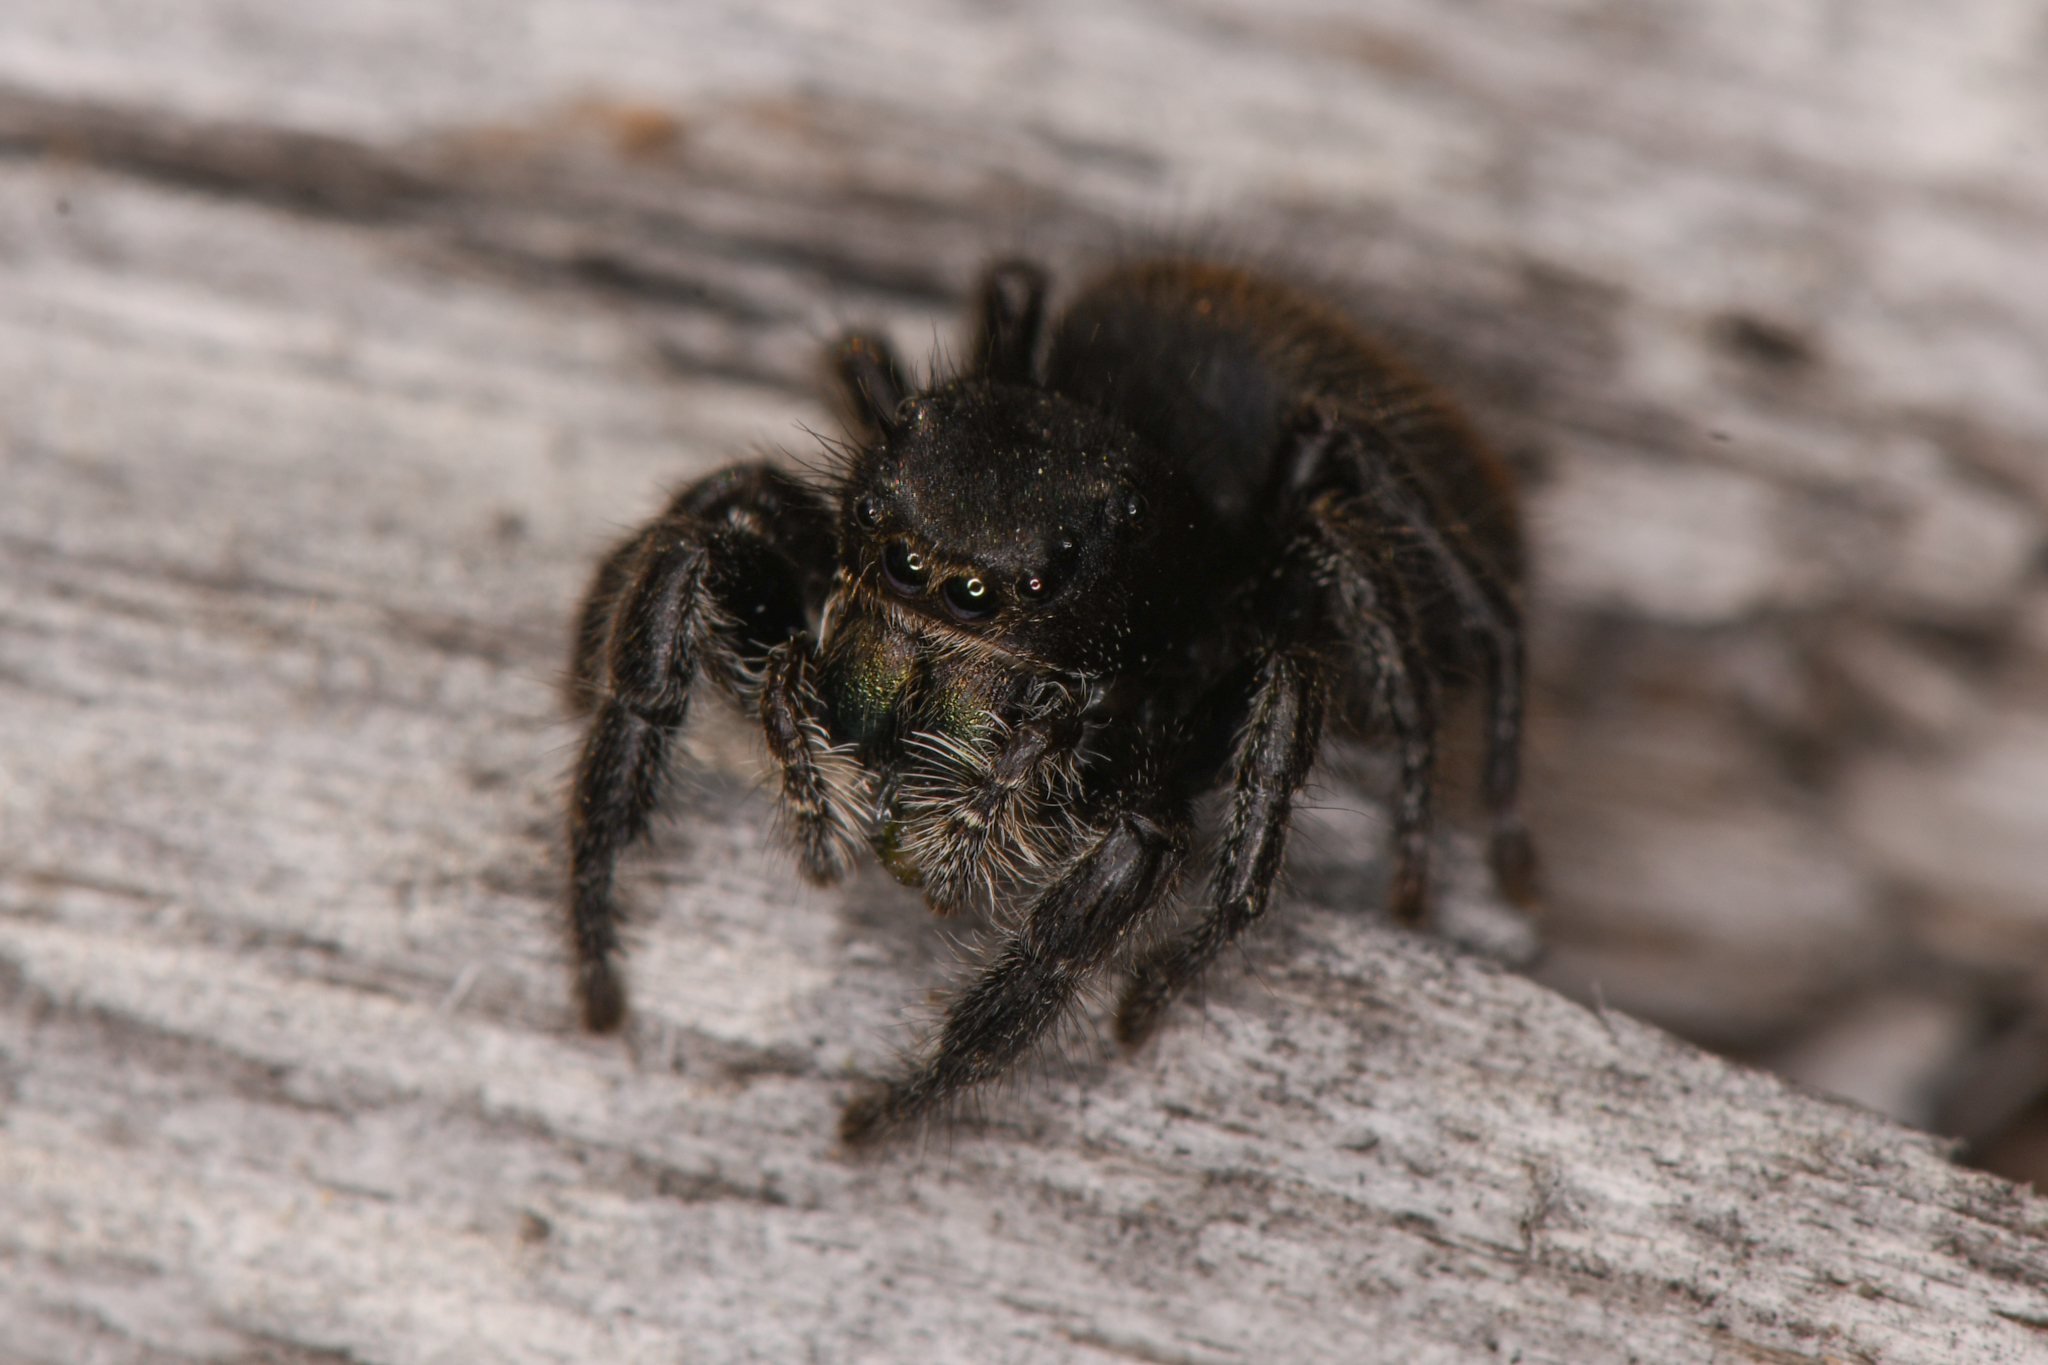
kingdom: Animalia
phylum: Arthropoda
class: Arachnida
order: Araneae
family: Salticidae
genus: Phidippus
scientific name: Phidippus johnsoni
